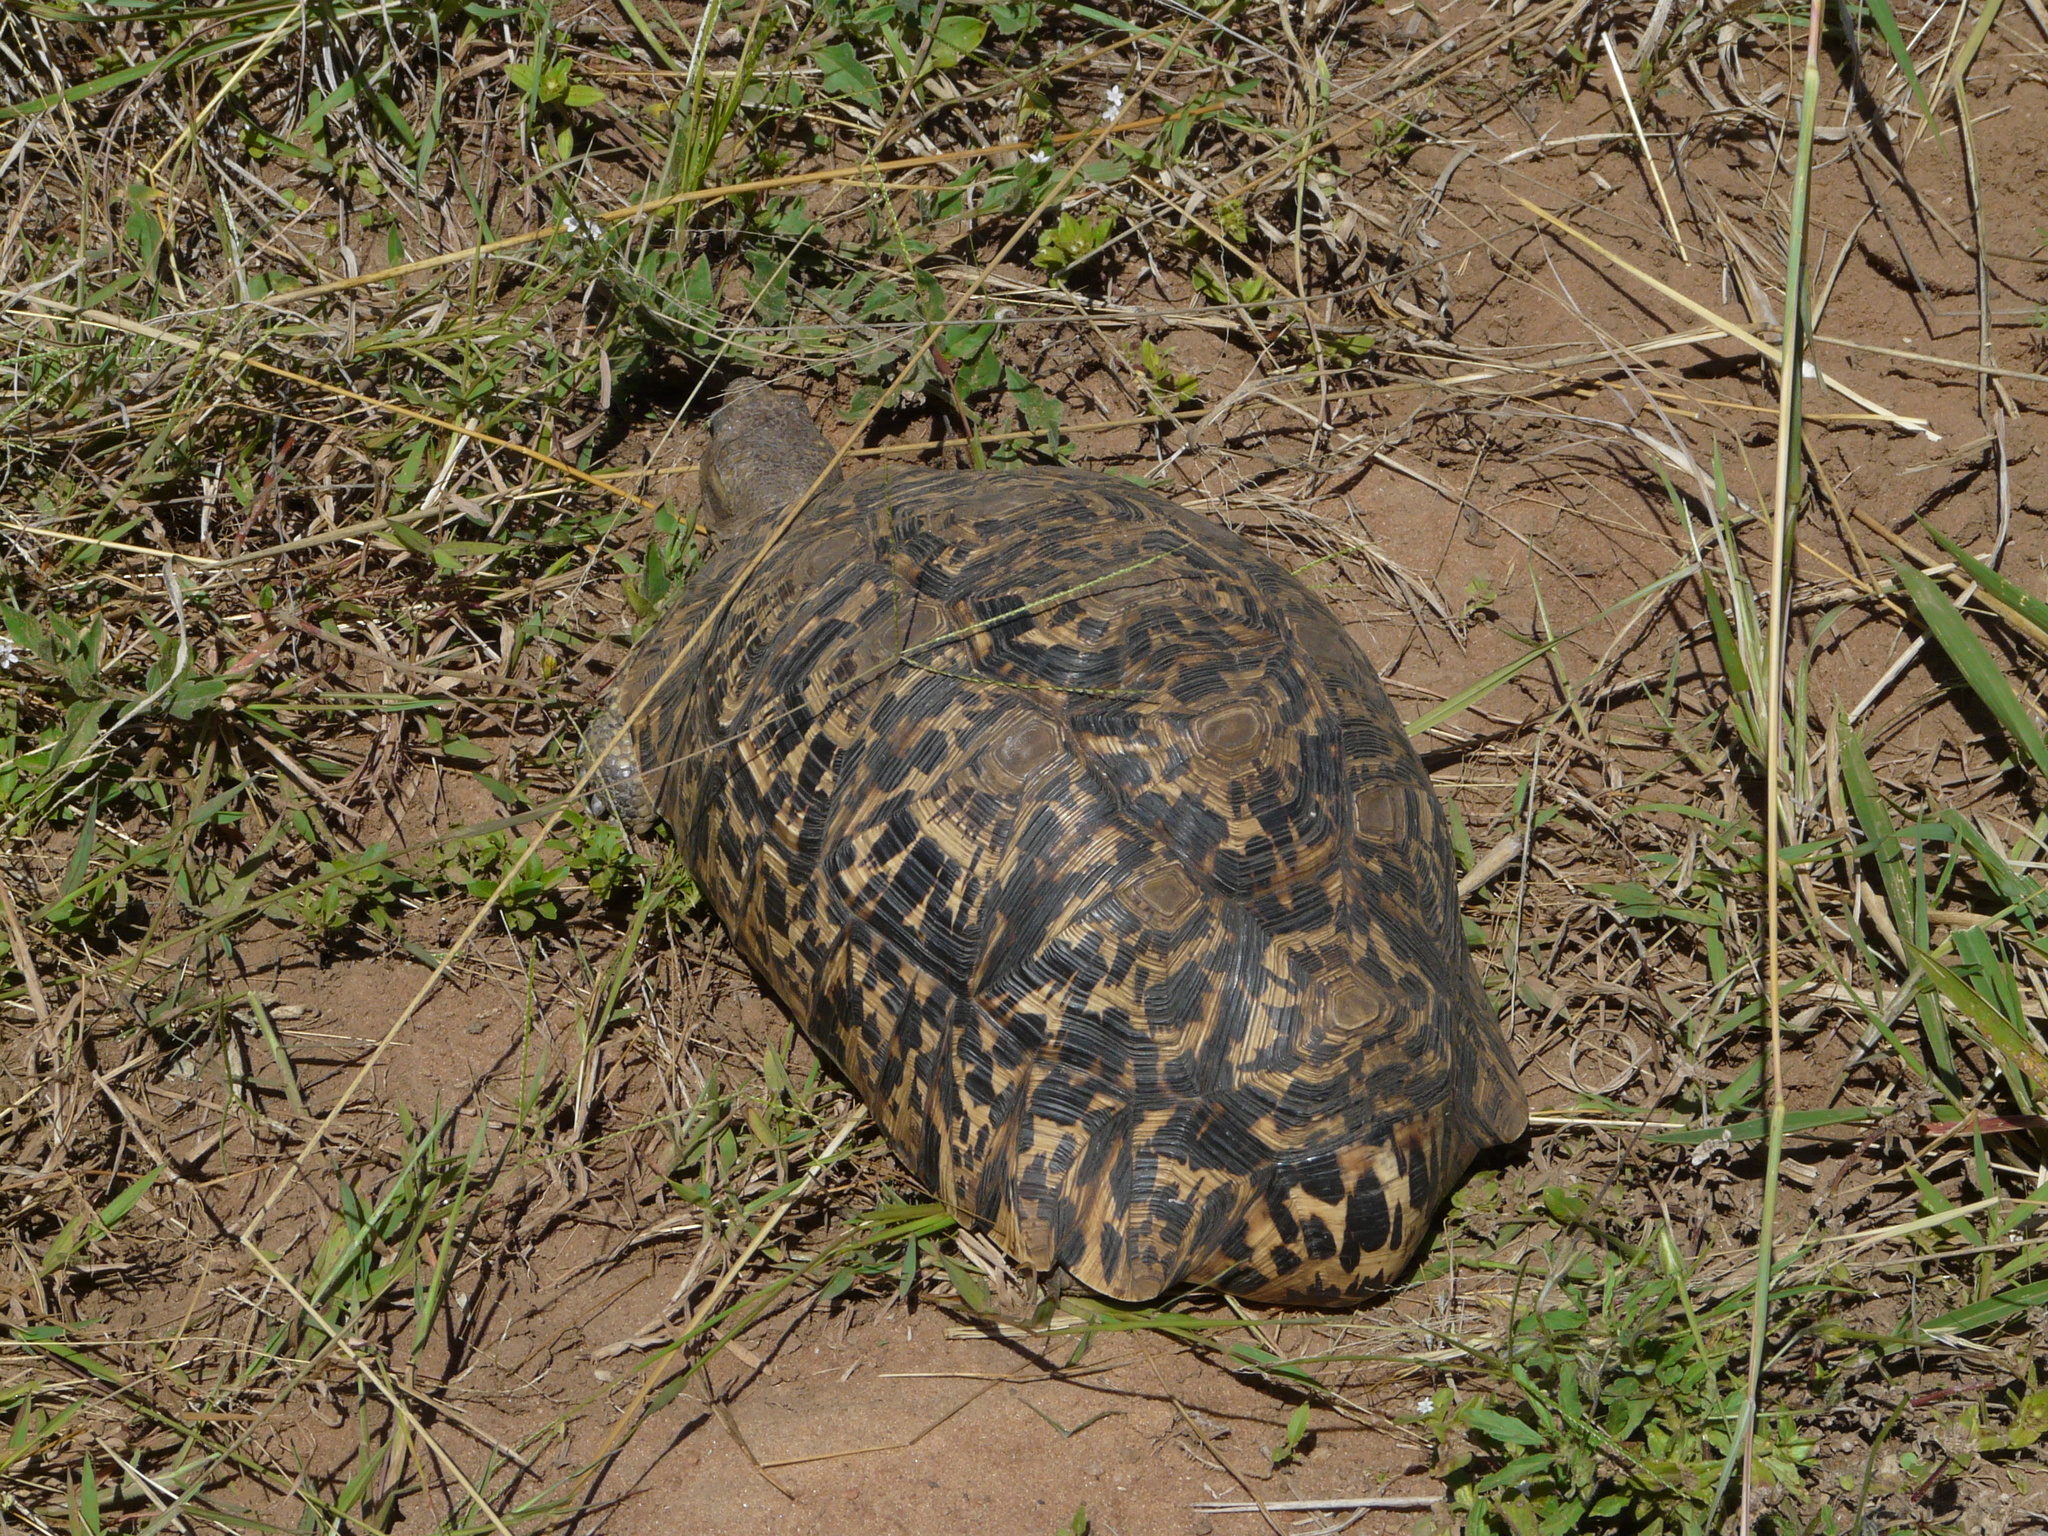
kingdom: Animalia
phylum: Chordata
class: Testudines
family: Testudinidae
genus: Stigmochelys
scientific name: Stigmochelys pardalis
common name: Leopard tortoise
